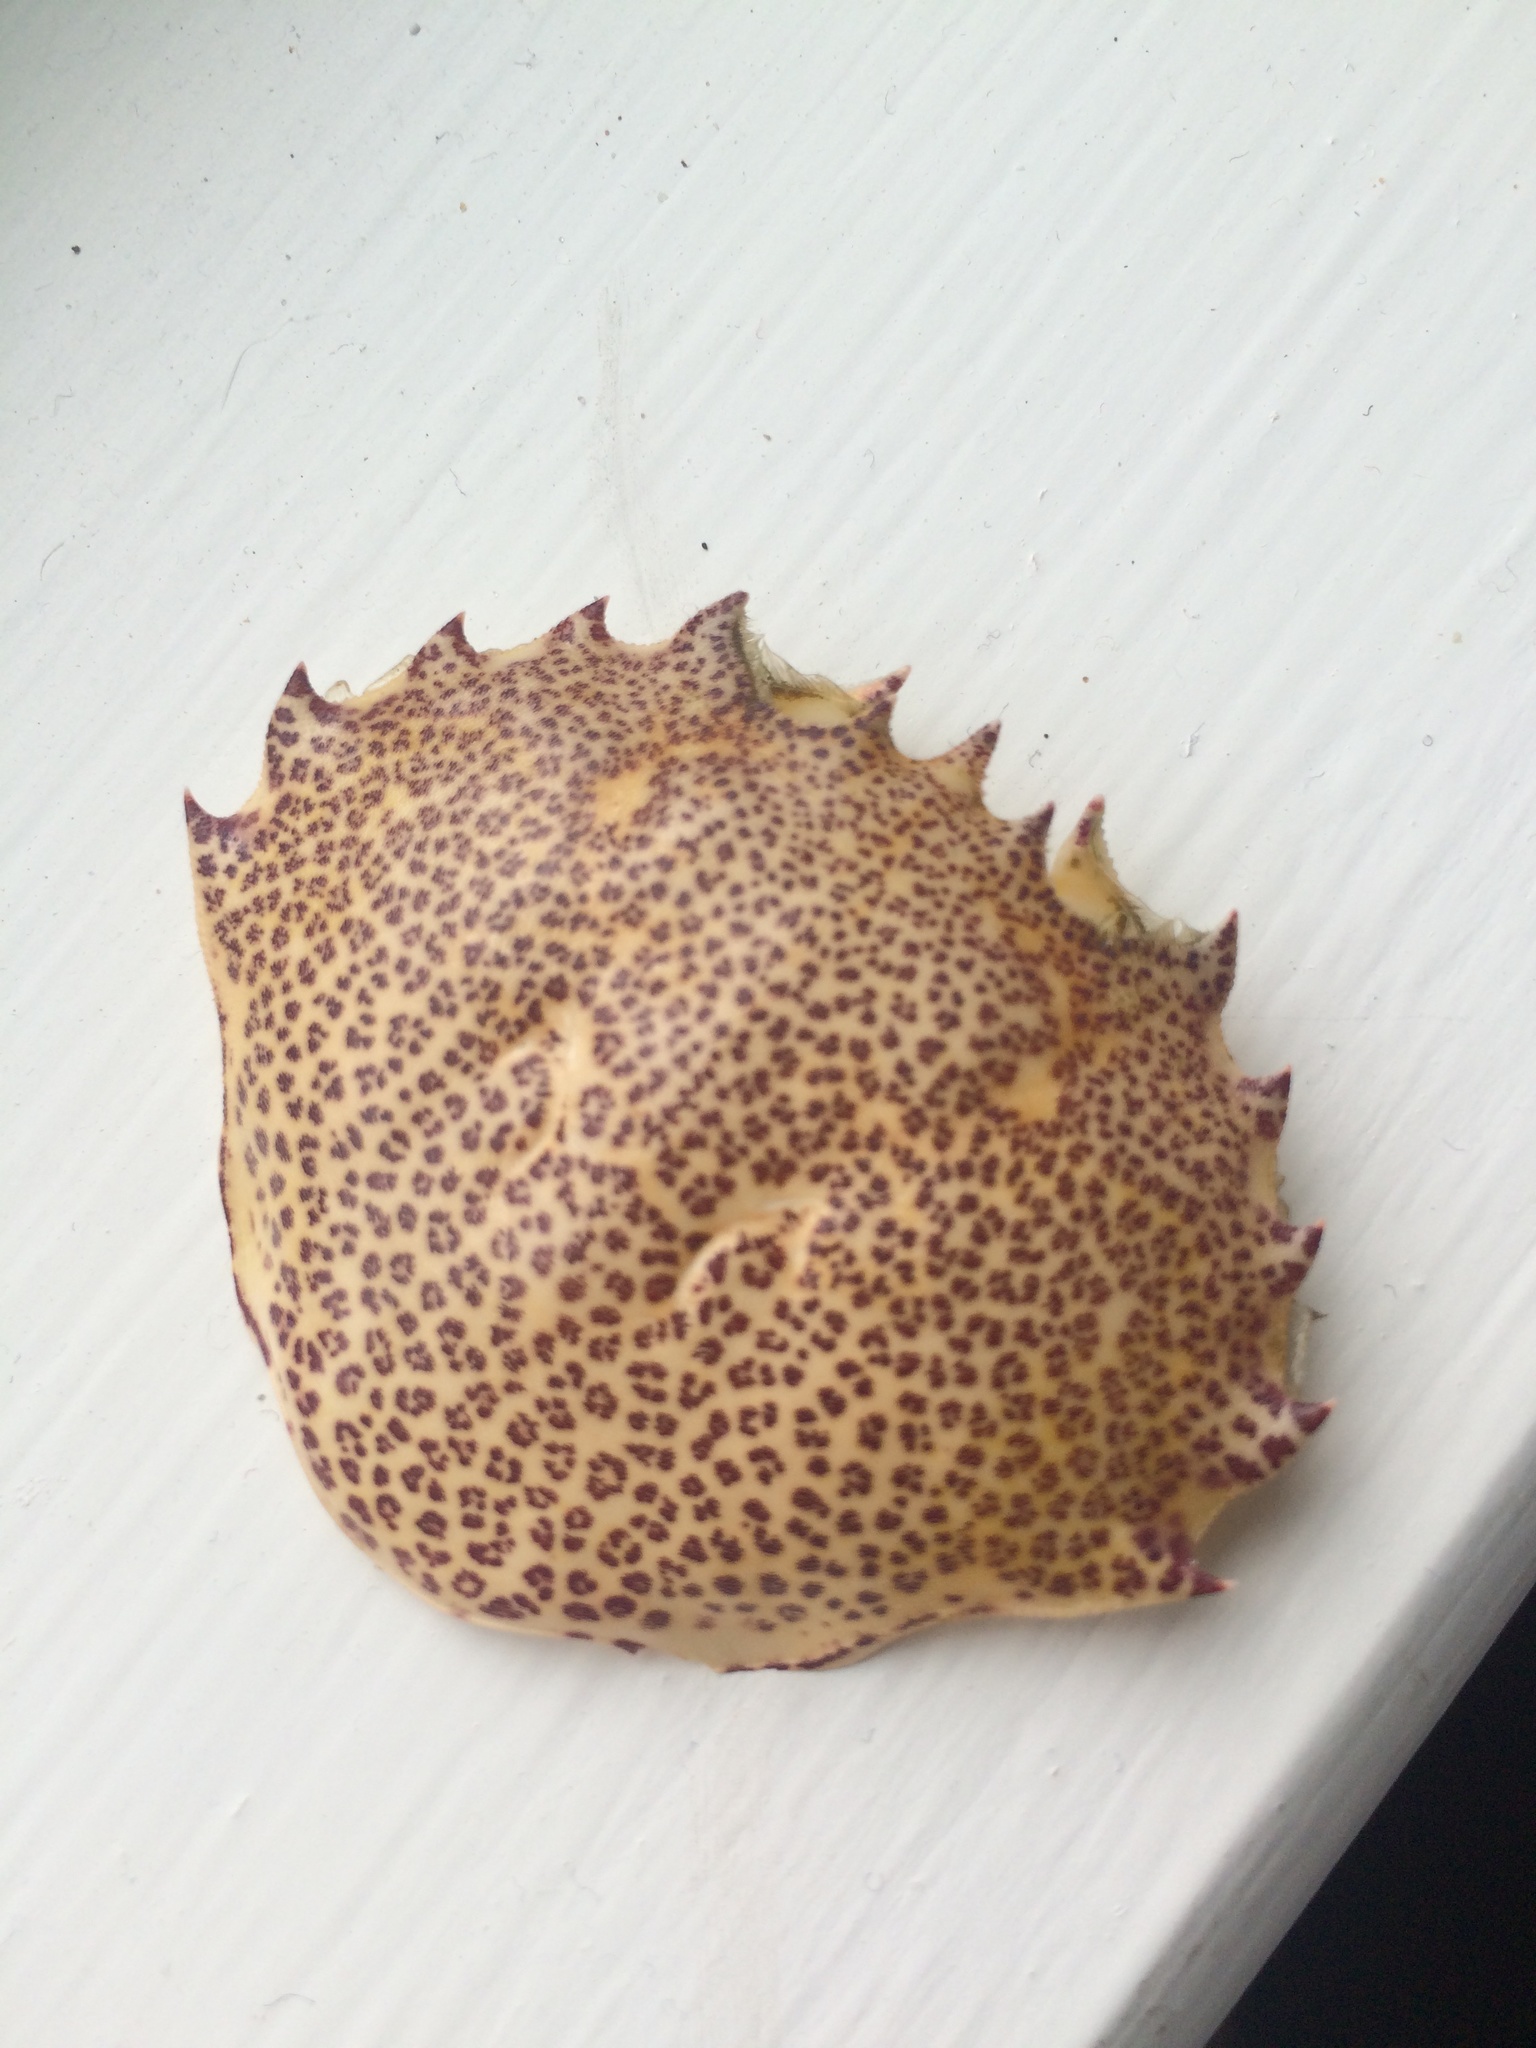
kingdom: Animalia
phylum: Arthropoda
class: Malacostraca
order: Decapoda
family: Ovalipidae
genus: Ovalipes
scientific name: Ovalipes ocellatus
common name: Lady crab
